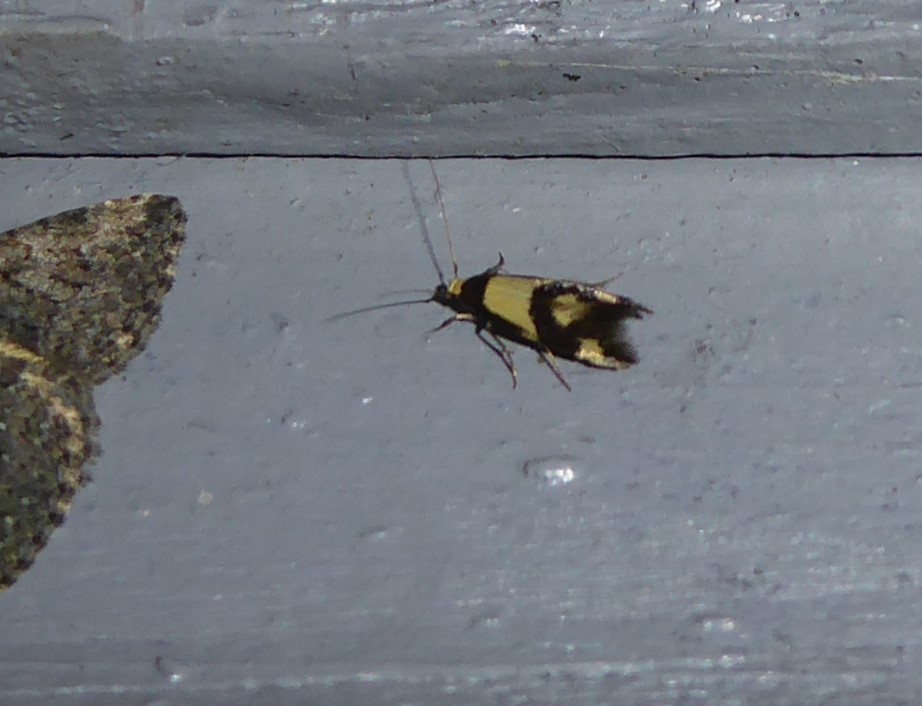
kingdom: Animalia
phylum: Arthropoda
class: Insecta
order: Lepidoptera
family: Tineidae
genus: Opogona
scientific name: Opogona comptella
